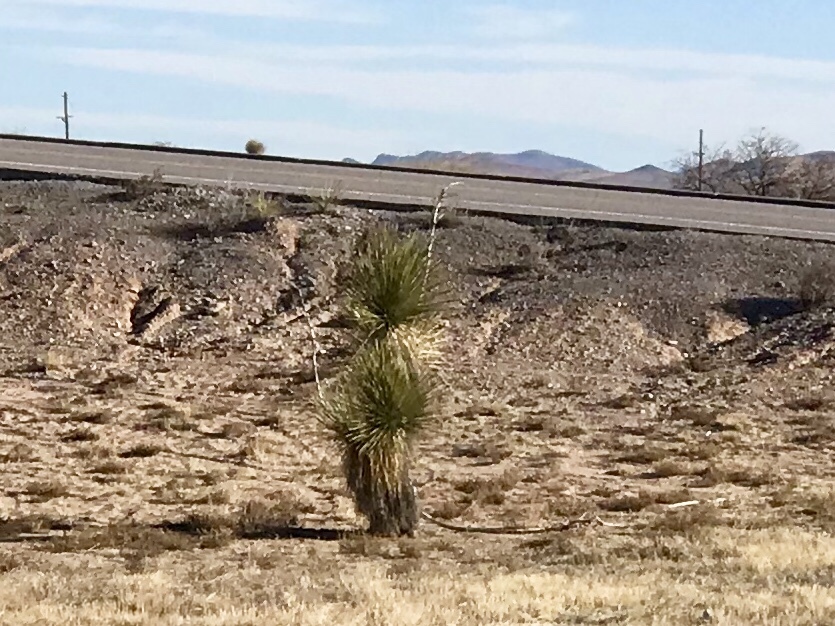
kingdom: Plantae
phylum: Tracheophyta
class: Liliopsida
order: Asparagales
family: Asparagaceae
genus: Yucca
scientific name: Yucca elata
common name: Palmella
